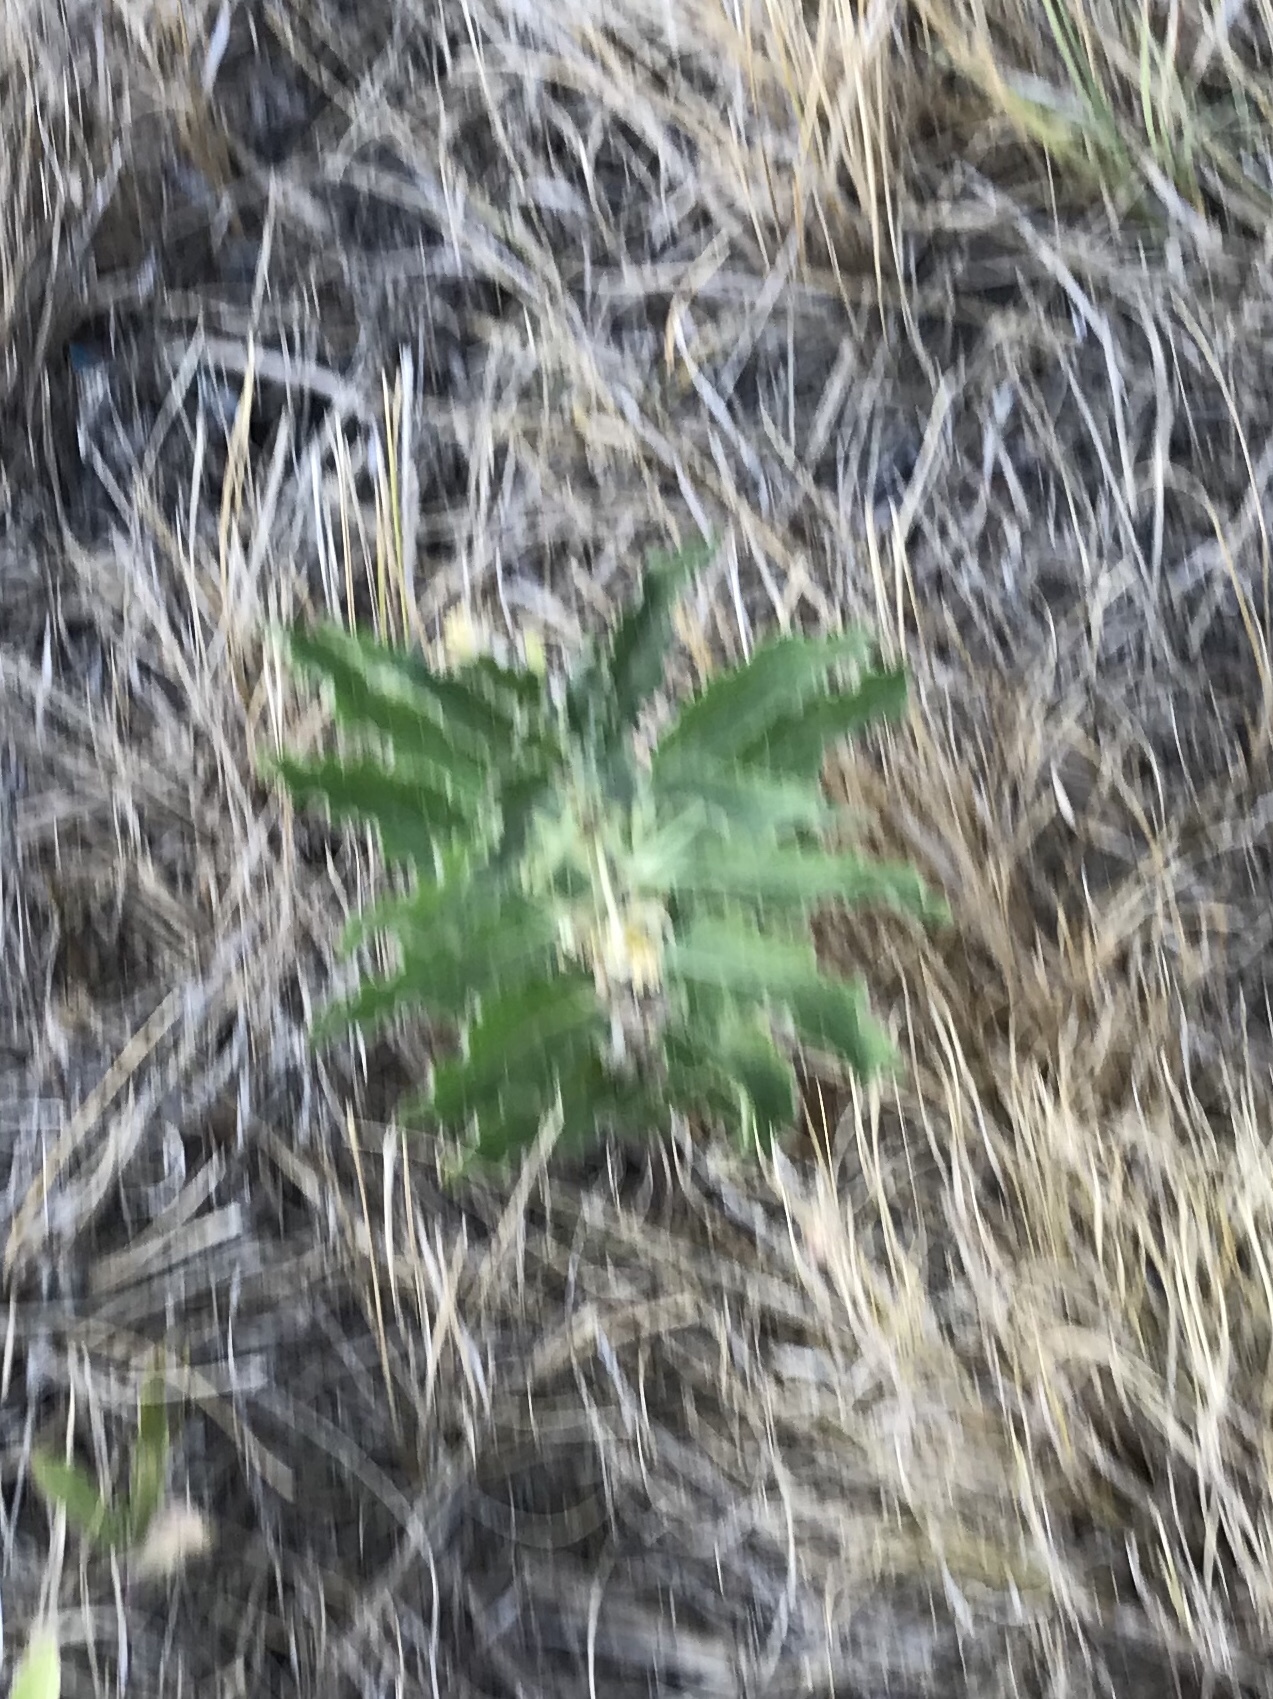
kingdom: Plantae
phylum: Tracheophyta
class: Magnoliopsida
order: Gentianales
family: Apocynaceae
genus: Asclepias
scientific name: Asclepias oenotheroides
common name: Zizotes milkweed
